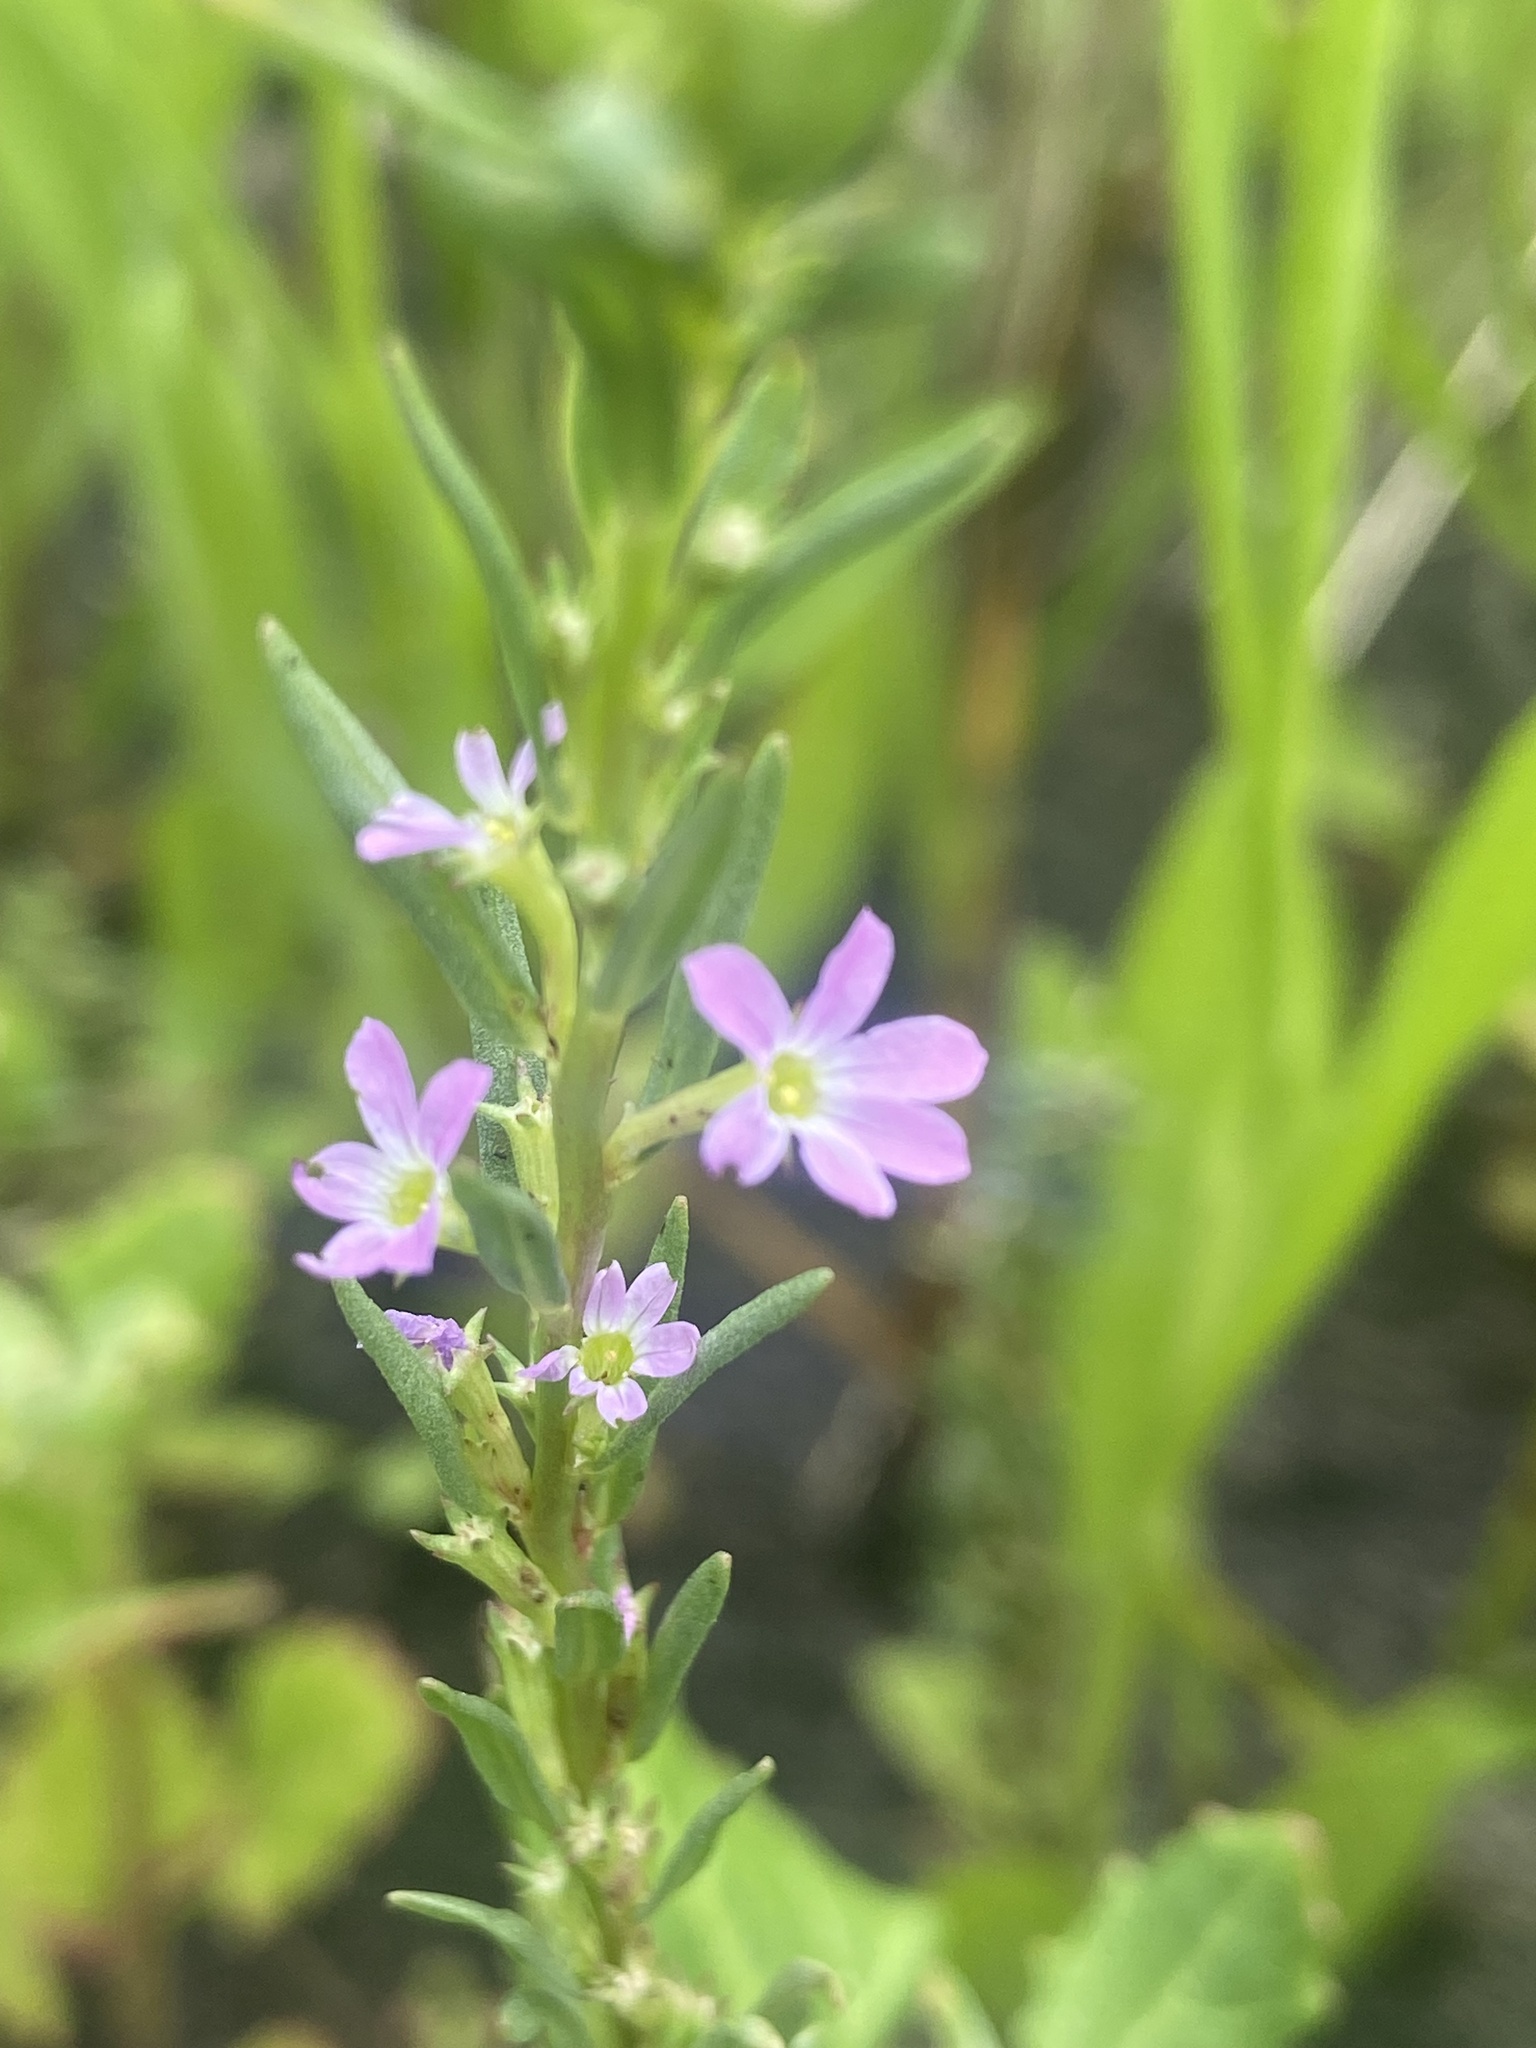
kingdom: Plantae
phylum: Tracheophyta
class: Magnoliopsida
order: Myrtales
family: Lythraceae
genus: Lythrum
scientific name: Lythrum hyssopifolia
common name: Grass-poly
